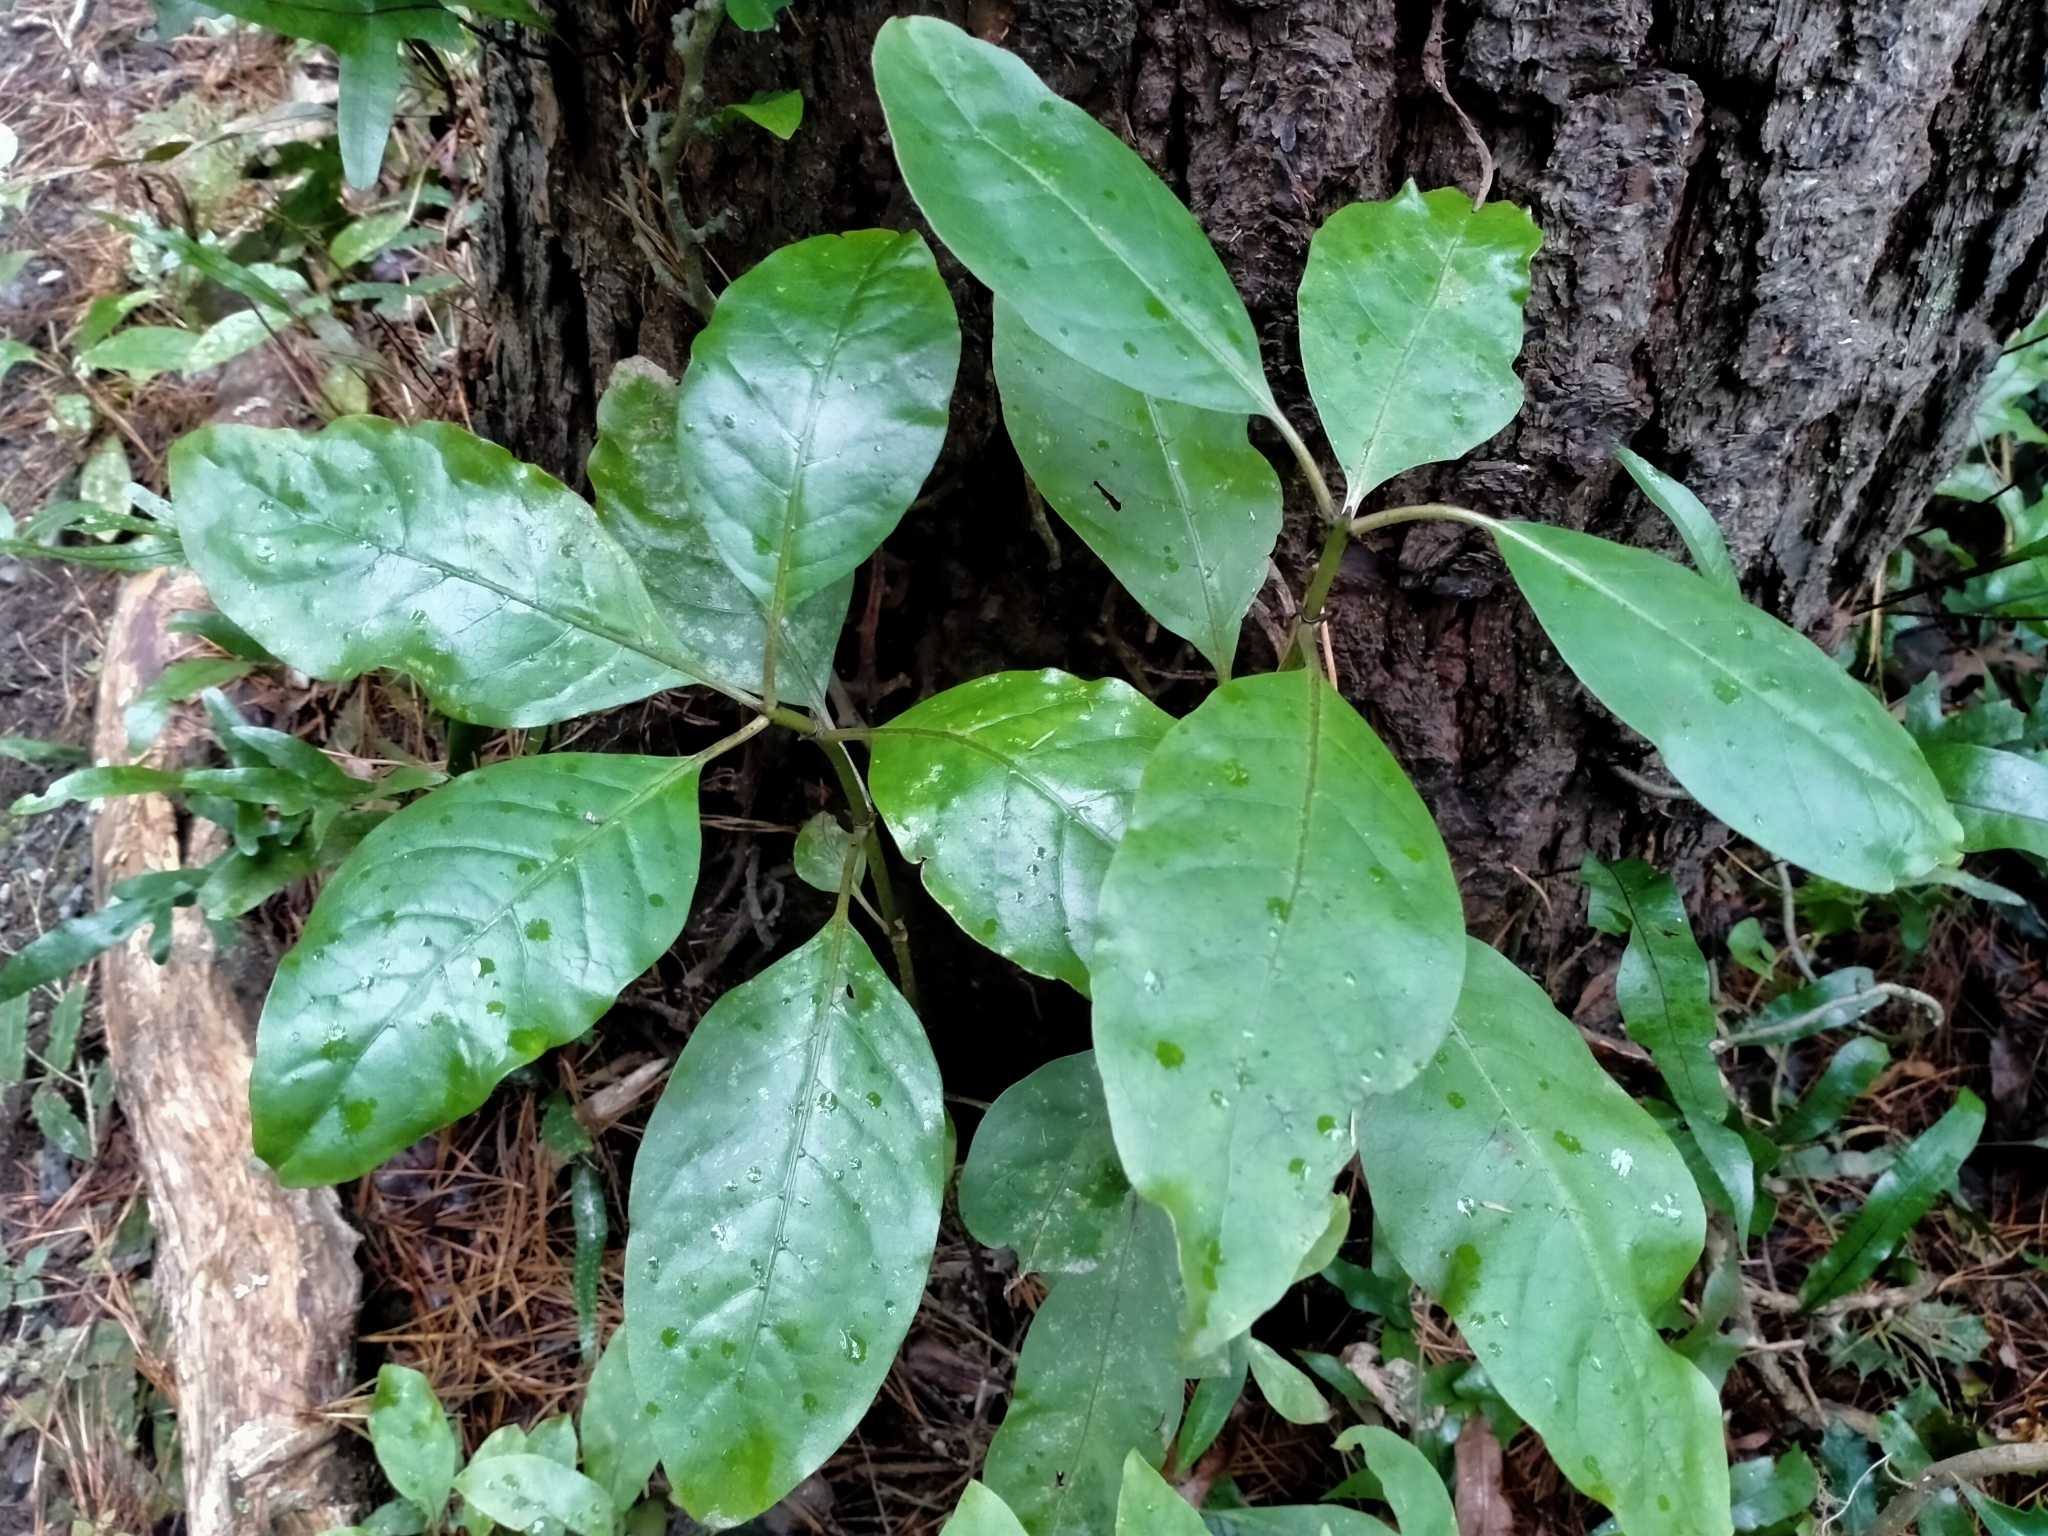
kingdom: Plantae
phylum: Tracheophyta
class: Magnoliopsida
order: Gentianales
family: Rubiaceae
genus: Coprosma
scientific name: Coprosma autumnalis
